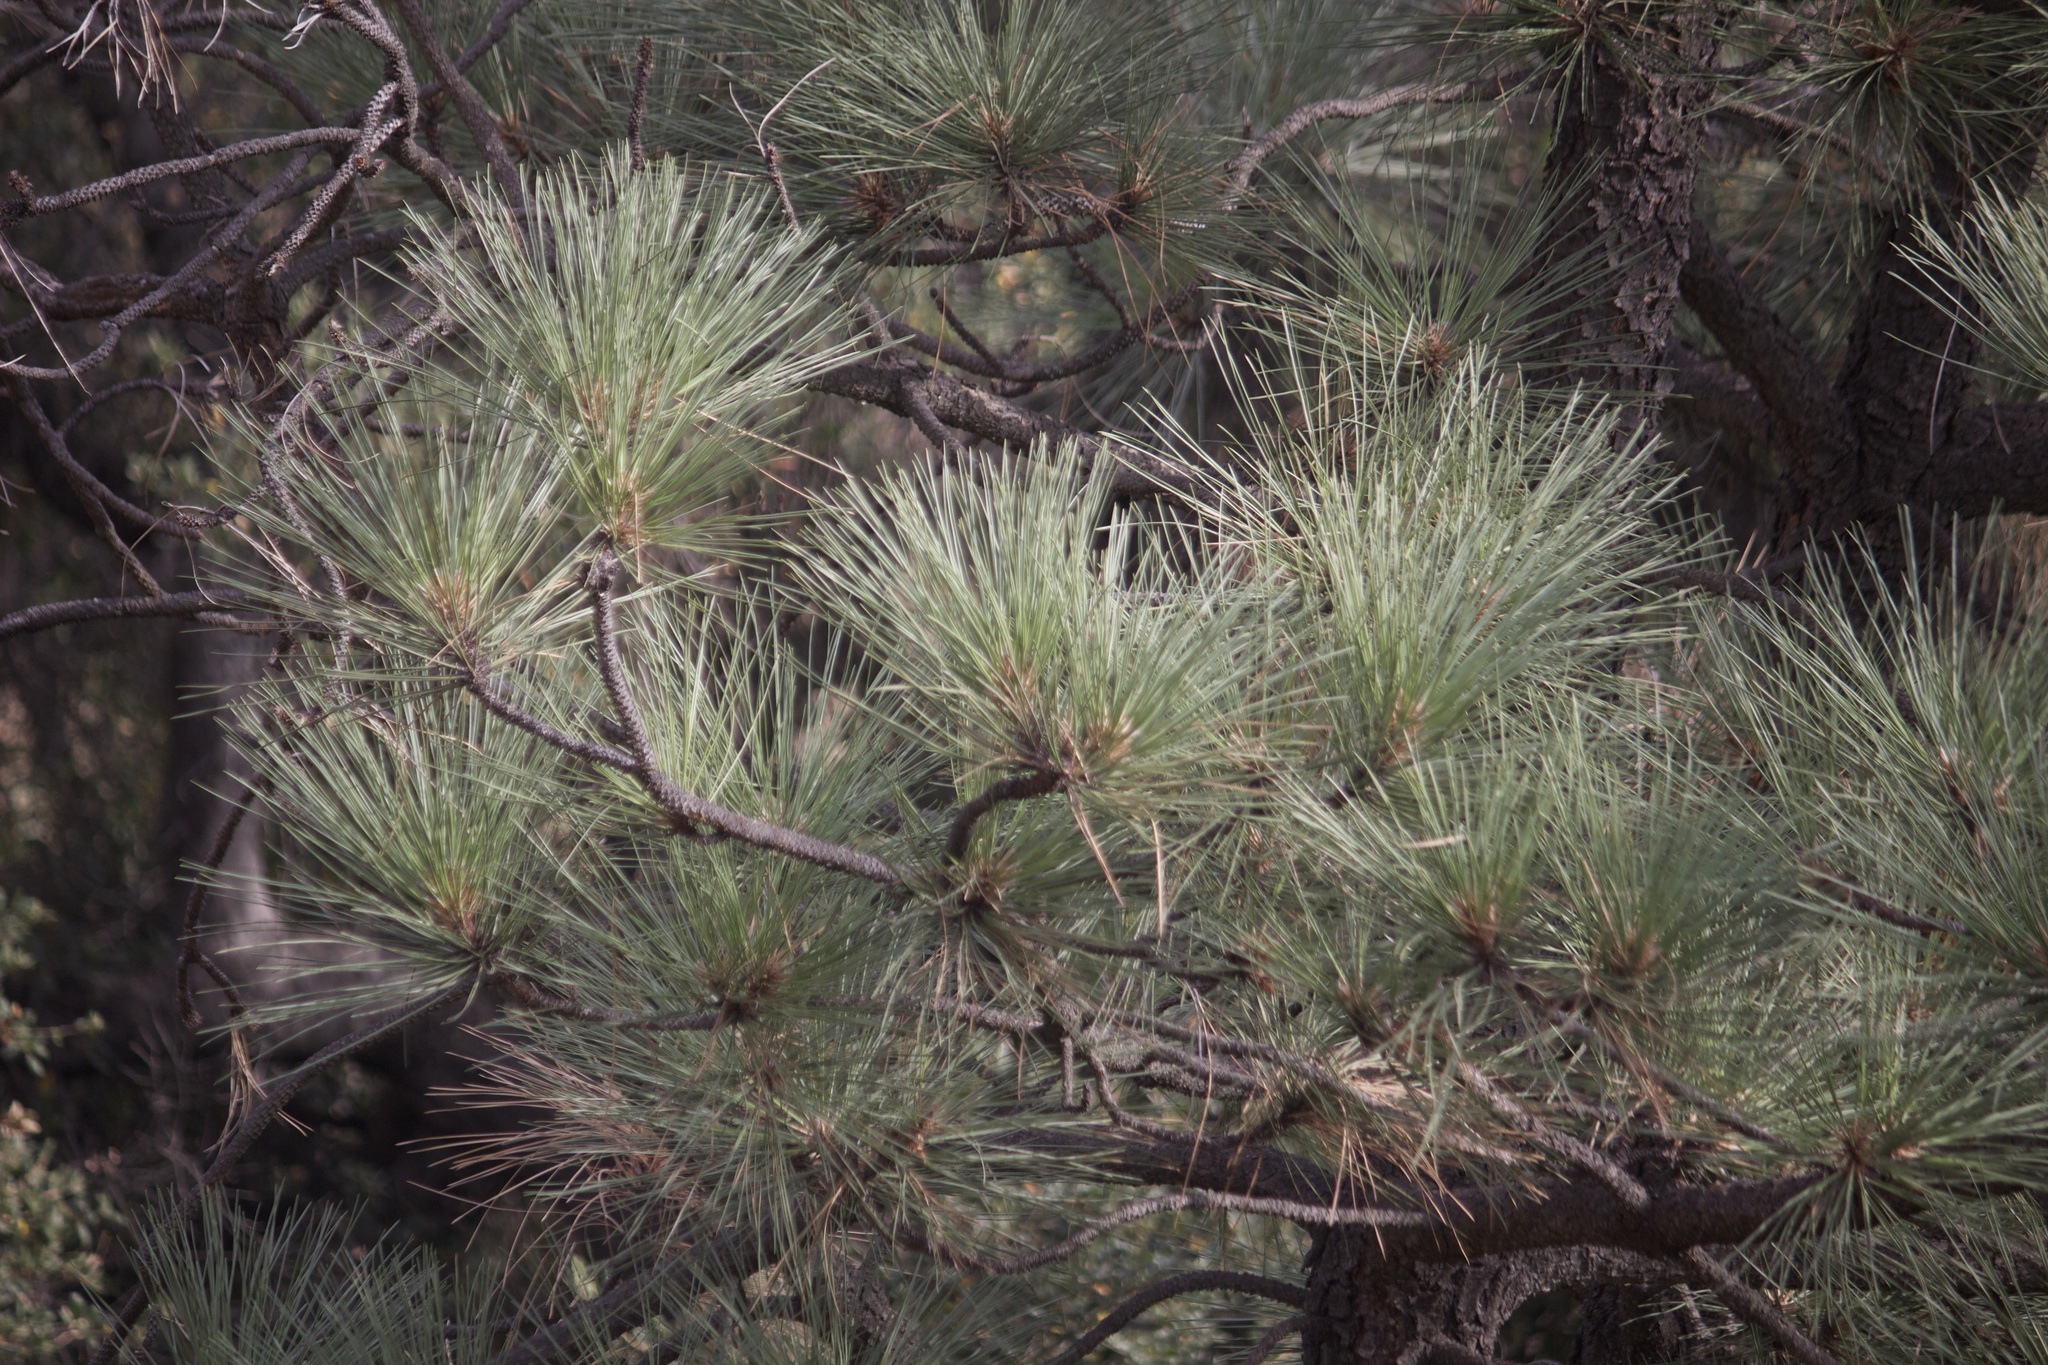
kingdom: Plantae
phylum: Tracheophyta
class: Pinopsida
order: Pinales
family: Pinaceae
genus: Pinus
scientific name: Pinus
